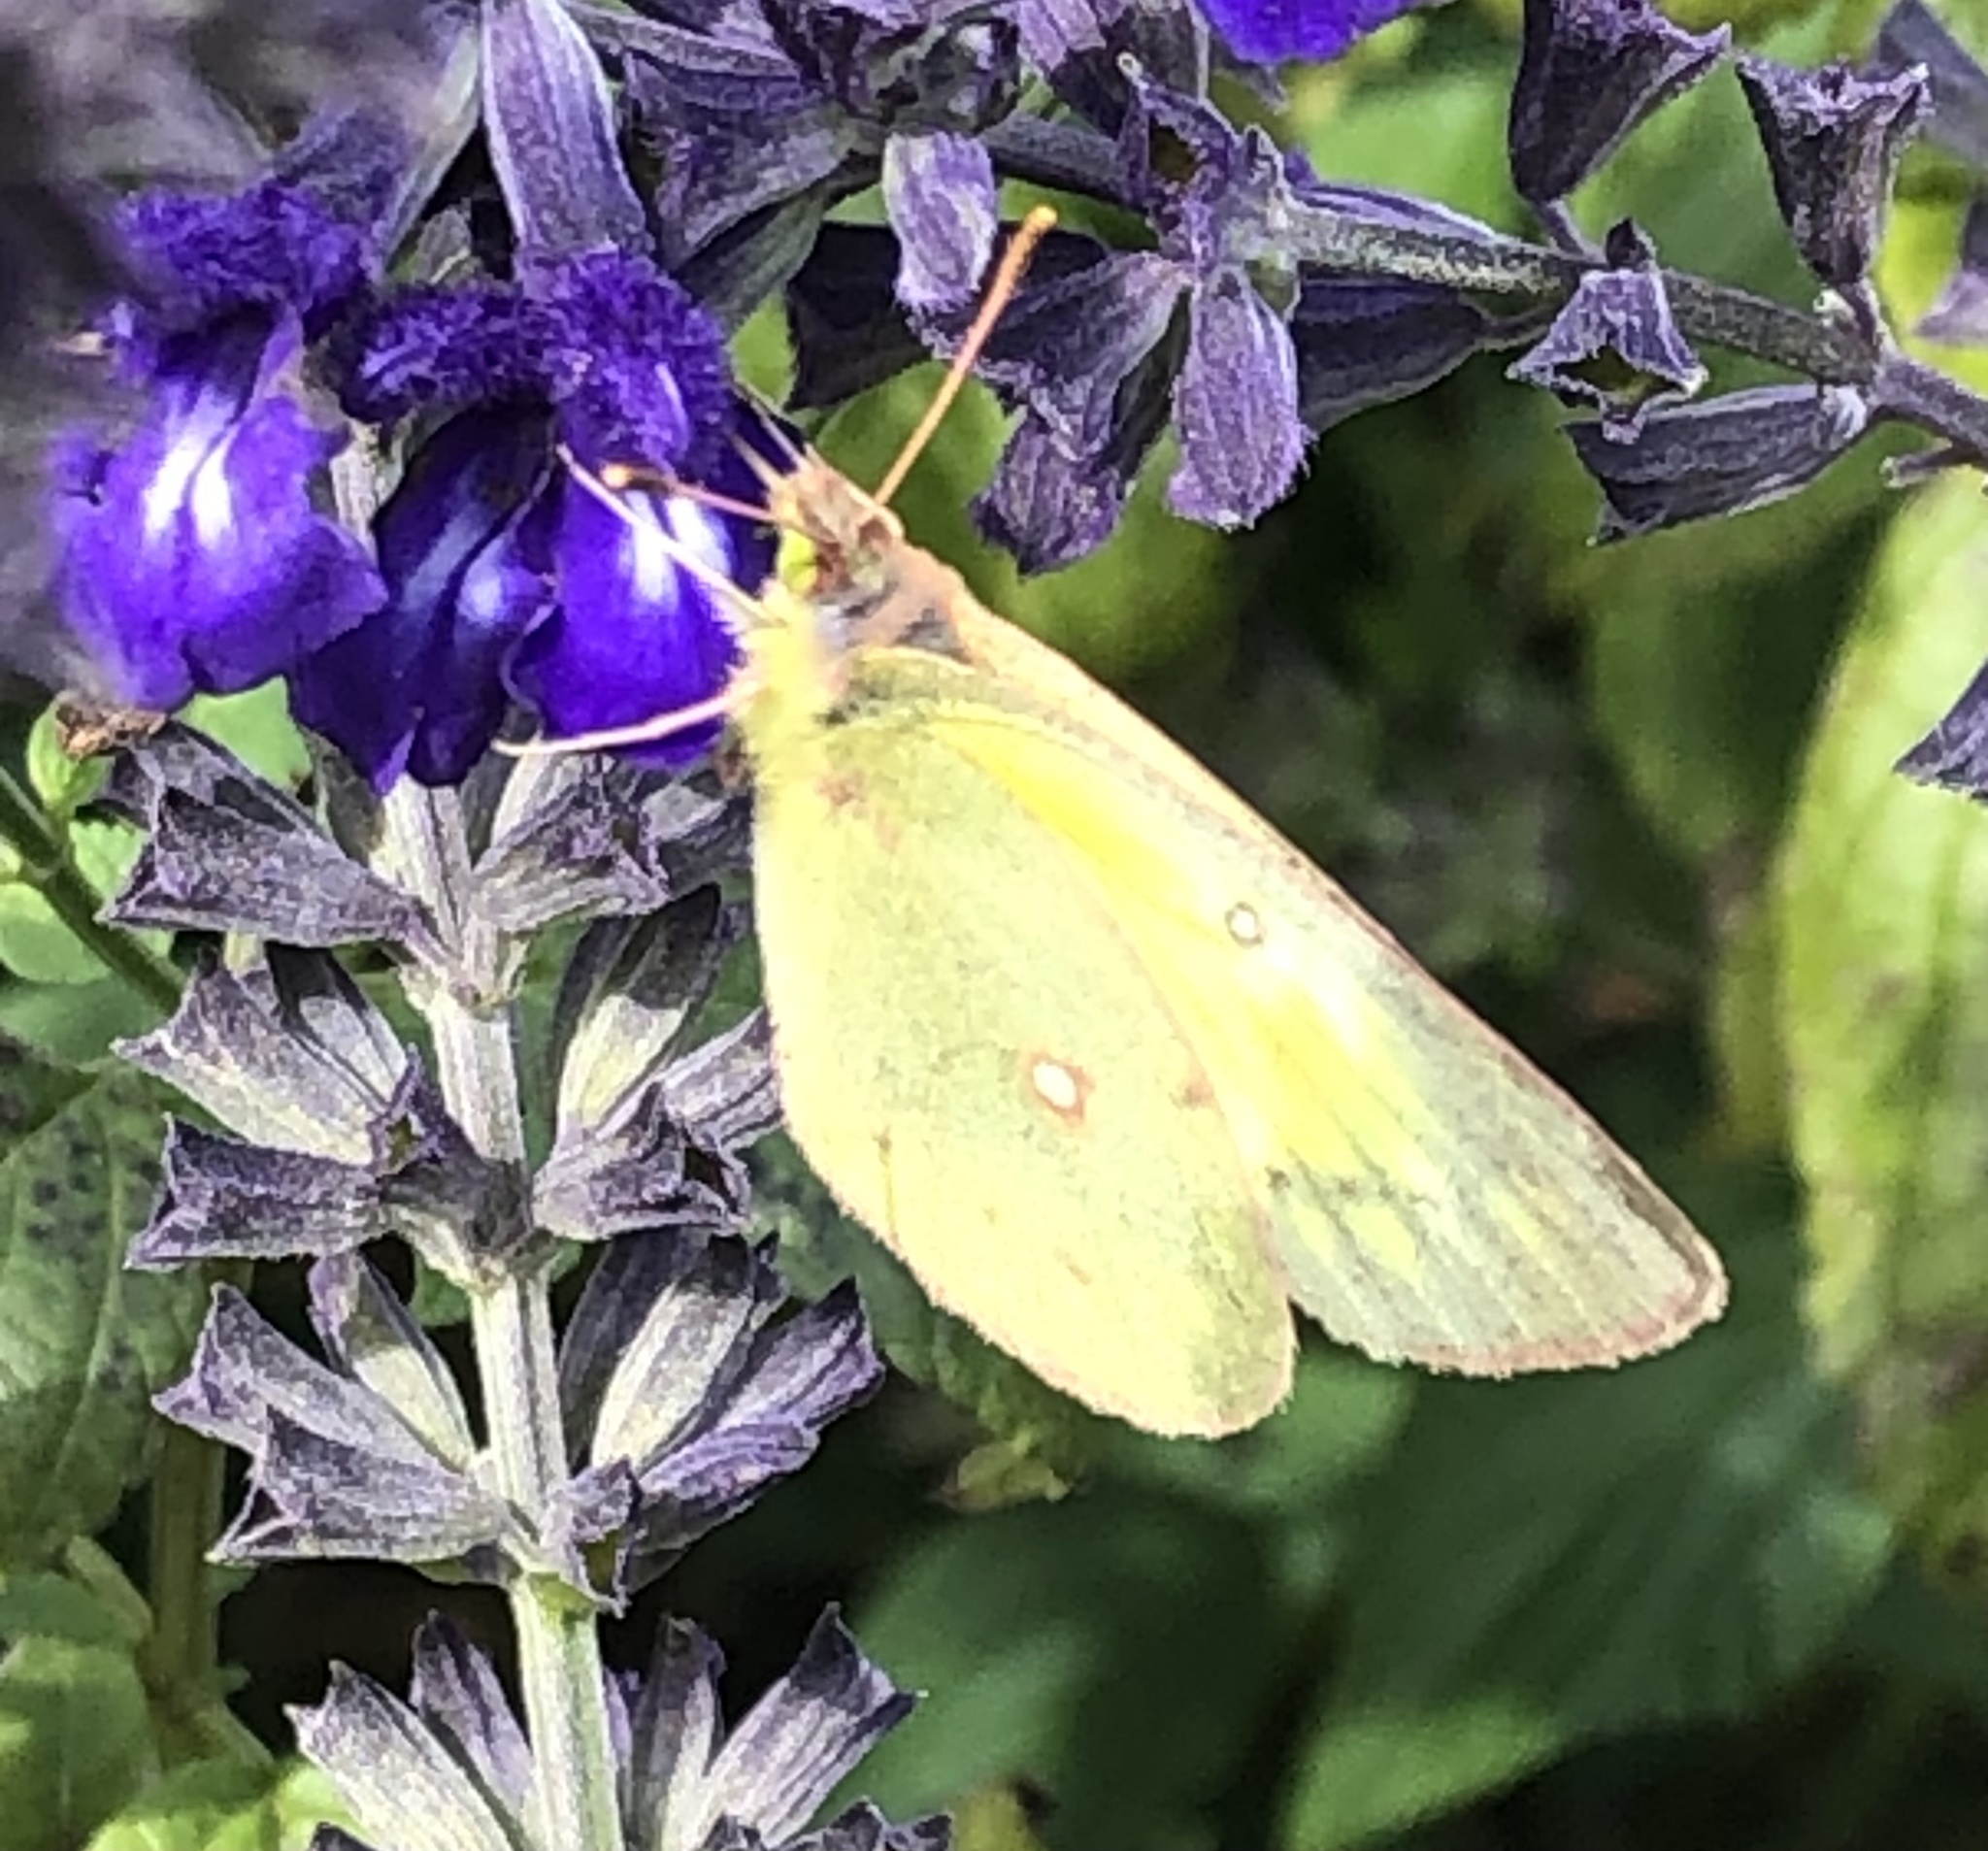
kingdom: Animalia
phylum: Arthropoda
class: Insecta
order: Lepidoptera
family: Pieridae
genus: Colias
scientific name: Colias eurytheme
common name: Alfalfa butterfly
